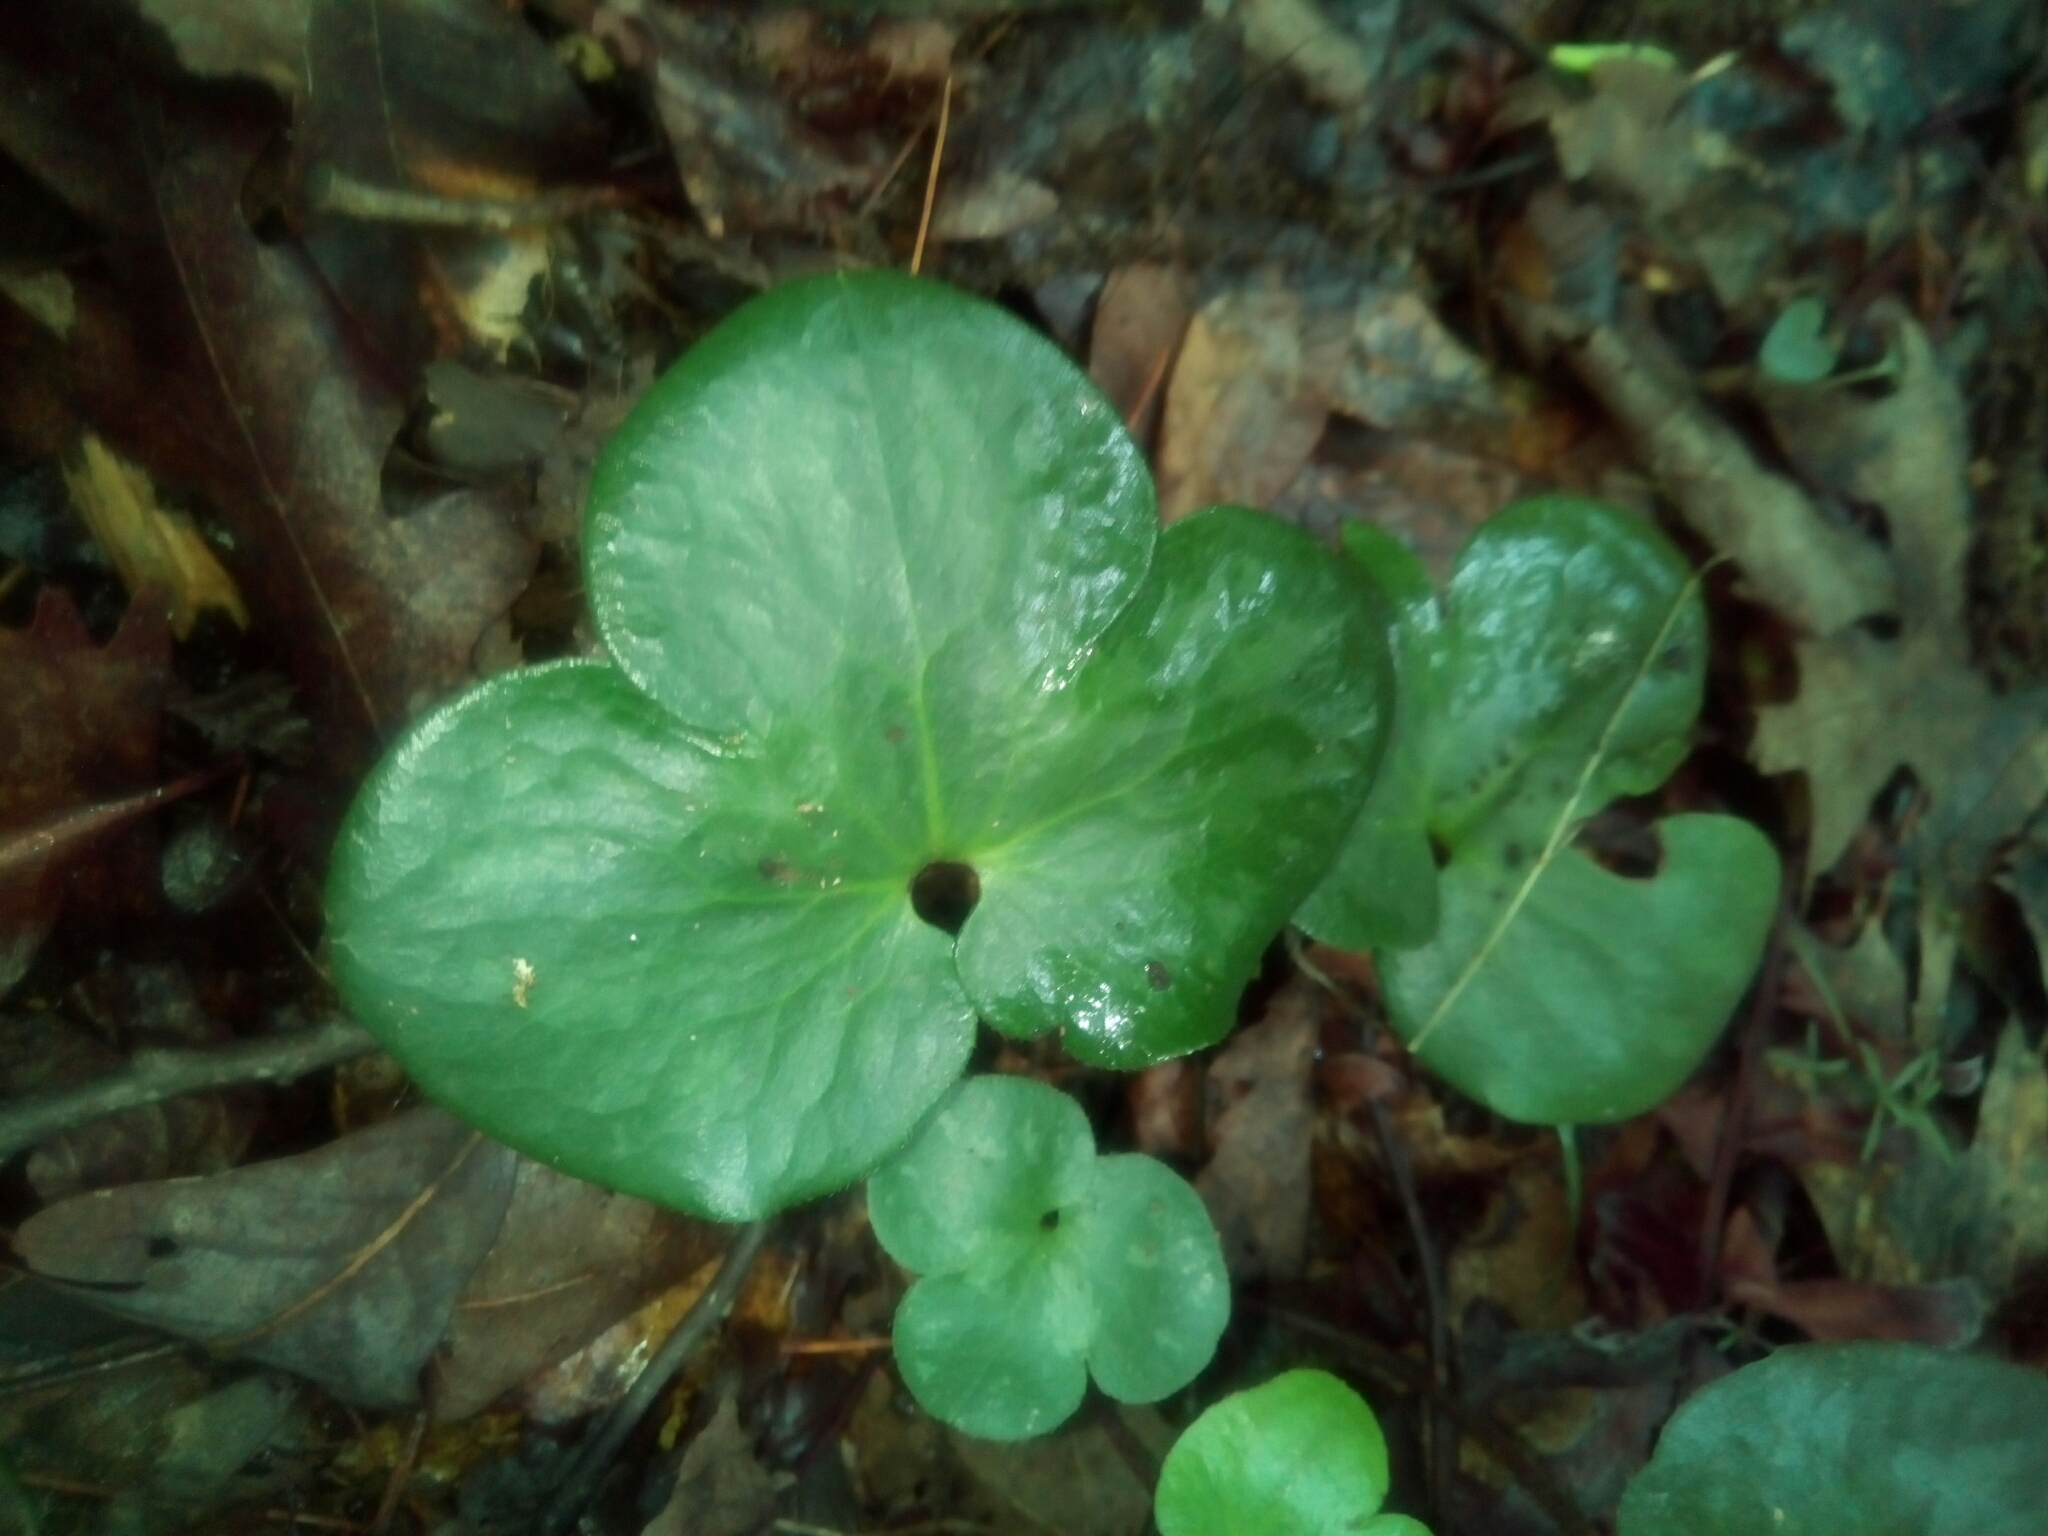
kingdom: Plantae
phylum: Tracheophyta
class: Magnoliopsida
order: Ranunculales
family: Ranunculaceae
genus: Hepatica
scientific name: Hepatica americana
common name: American hepatica
